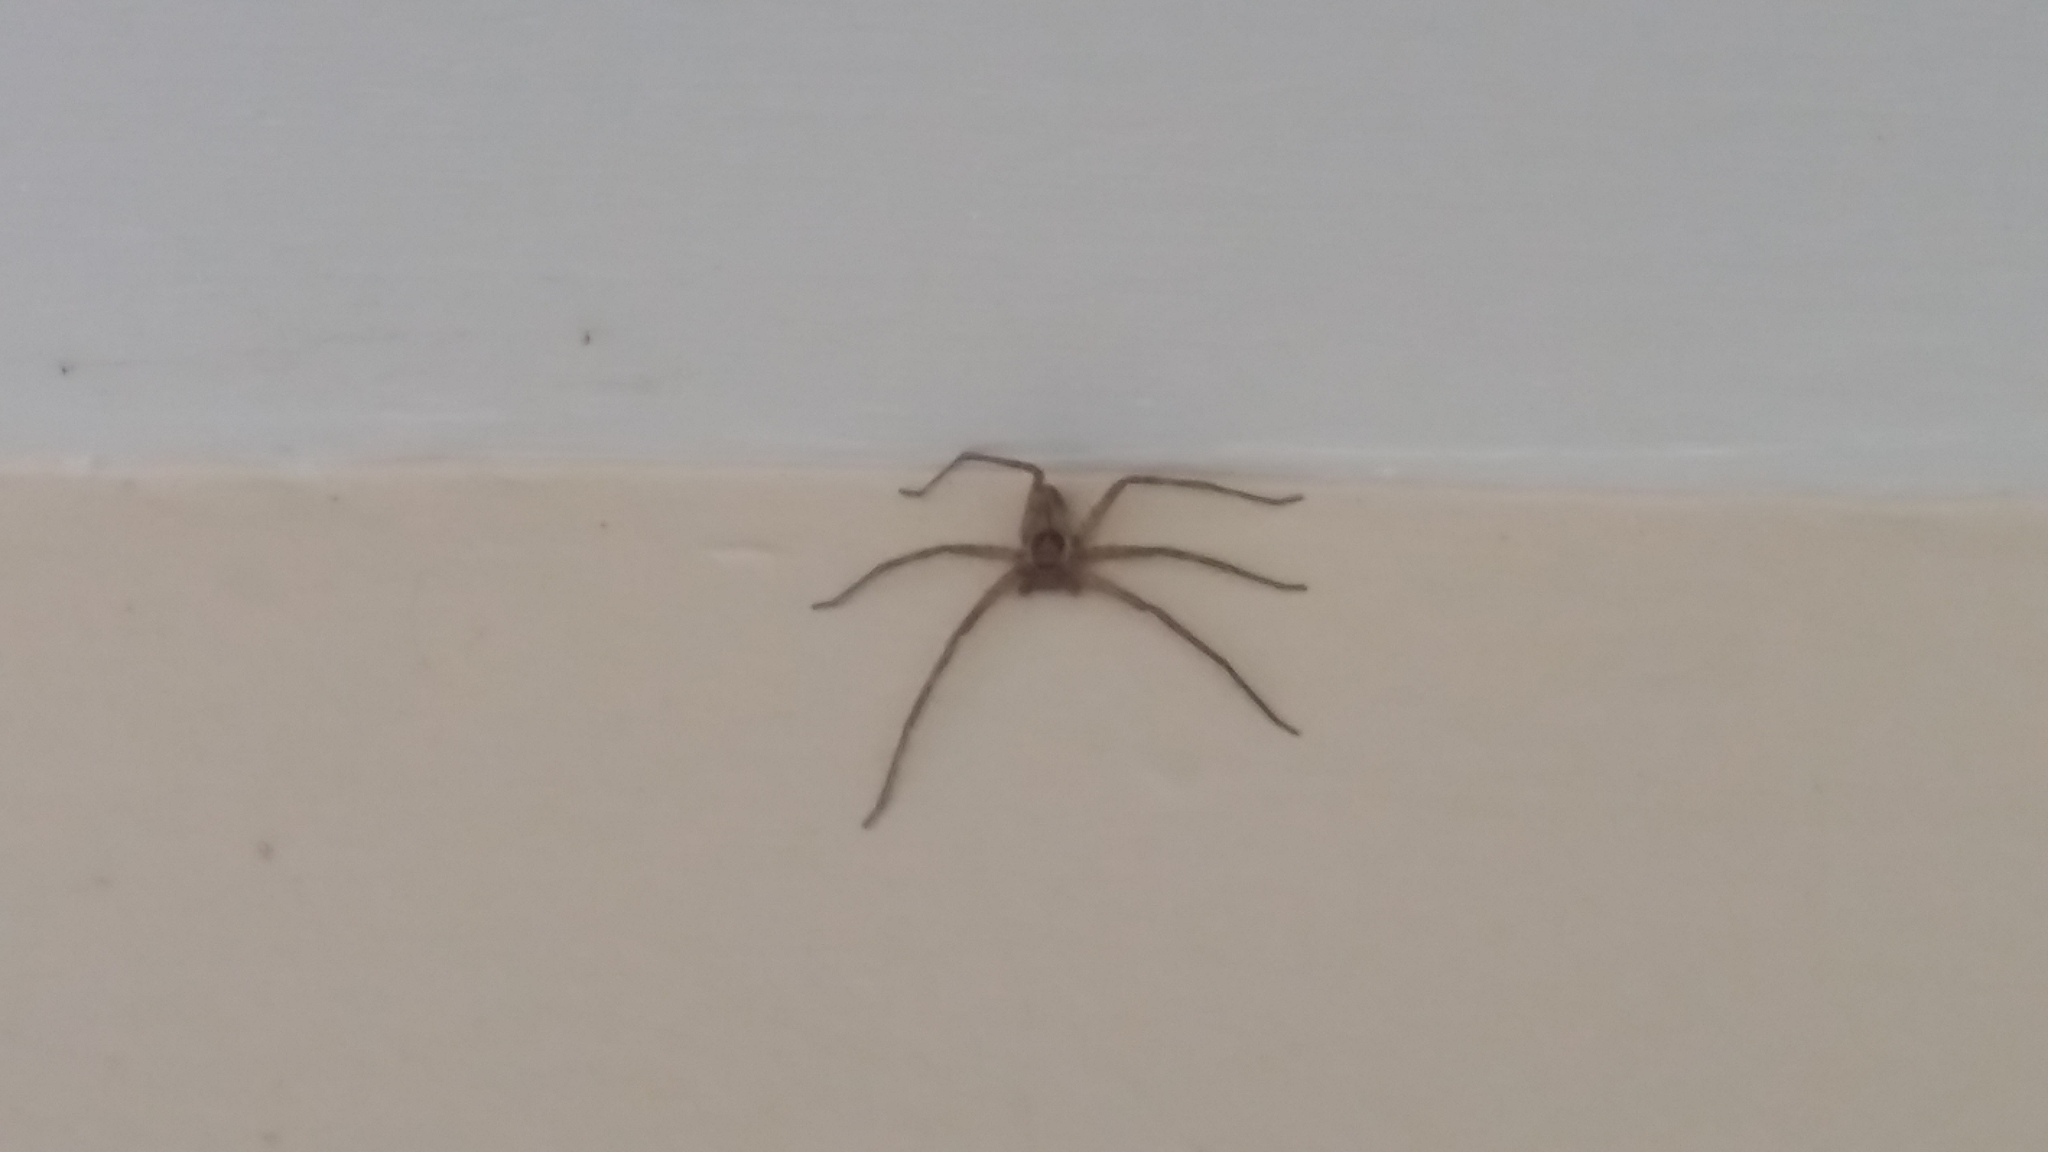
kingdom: Animalia
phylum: Arthropoda
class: Arachnida
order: Araneae
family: Sparassidae
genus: Heteropoda
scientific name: Heteropoda venatoria
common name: Huntsman spider
